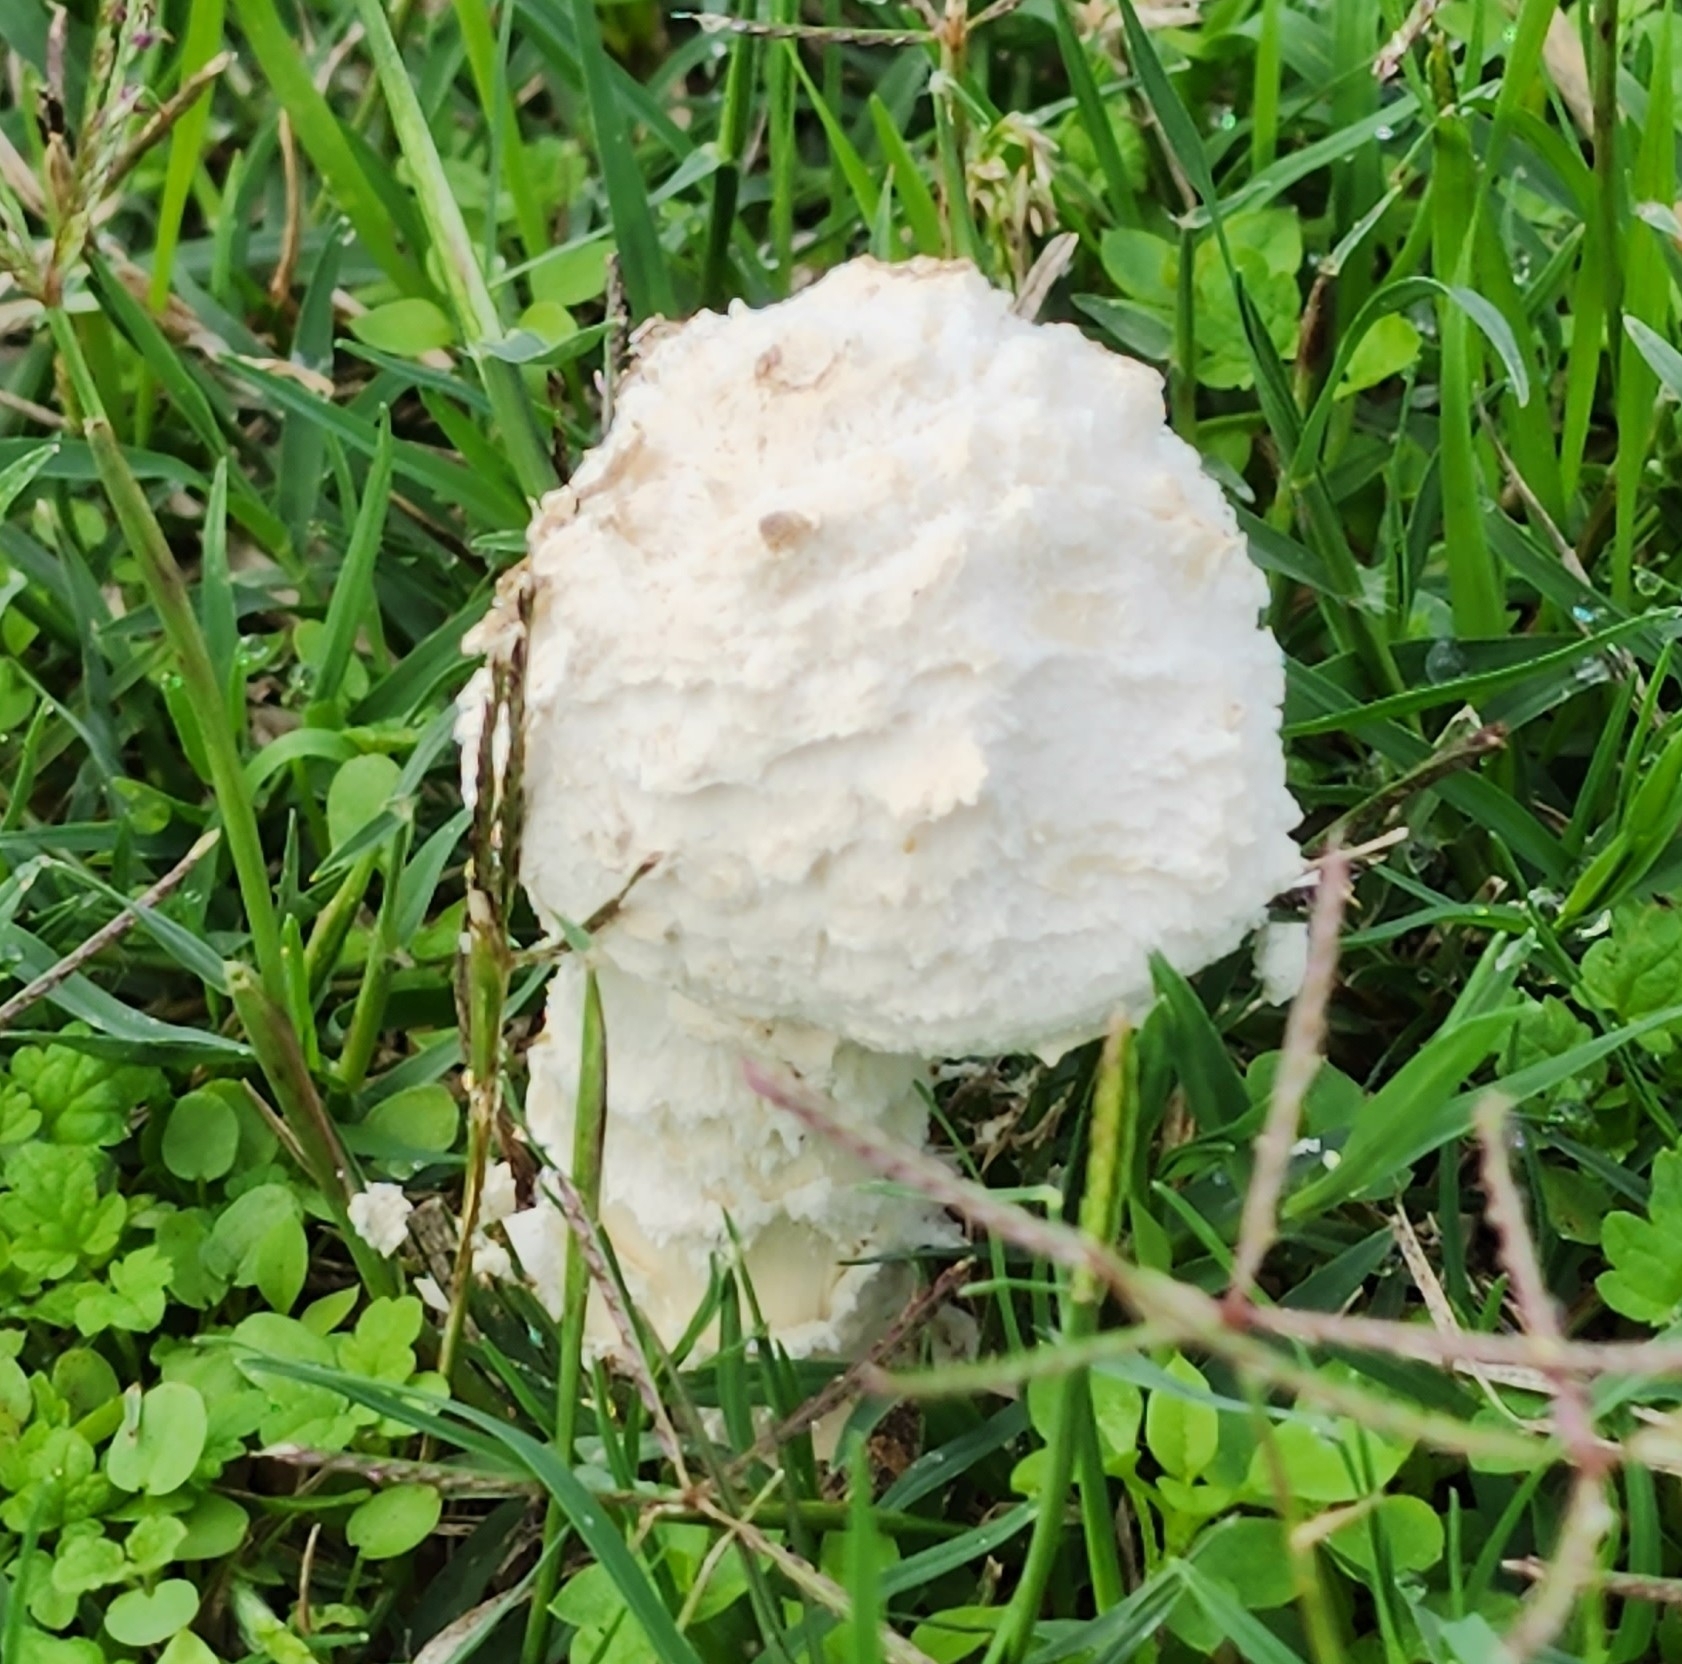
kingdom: Fungi
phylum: Basidiomycota
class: Agaricomycetes
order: Agaricales
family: Amanitaceae
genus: Amanita
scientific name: Amanita thiersii
